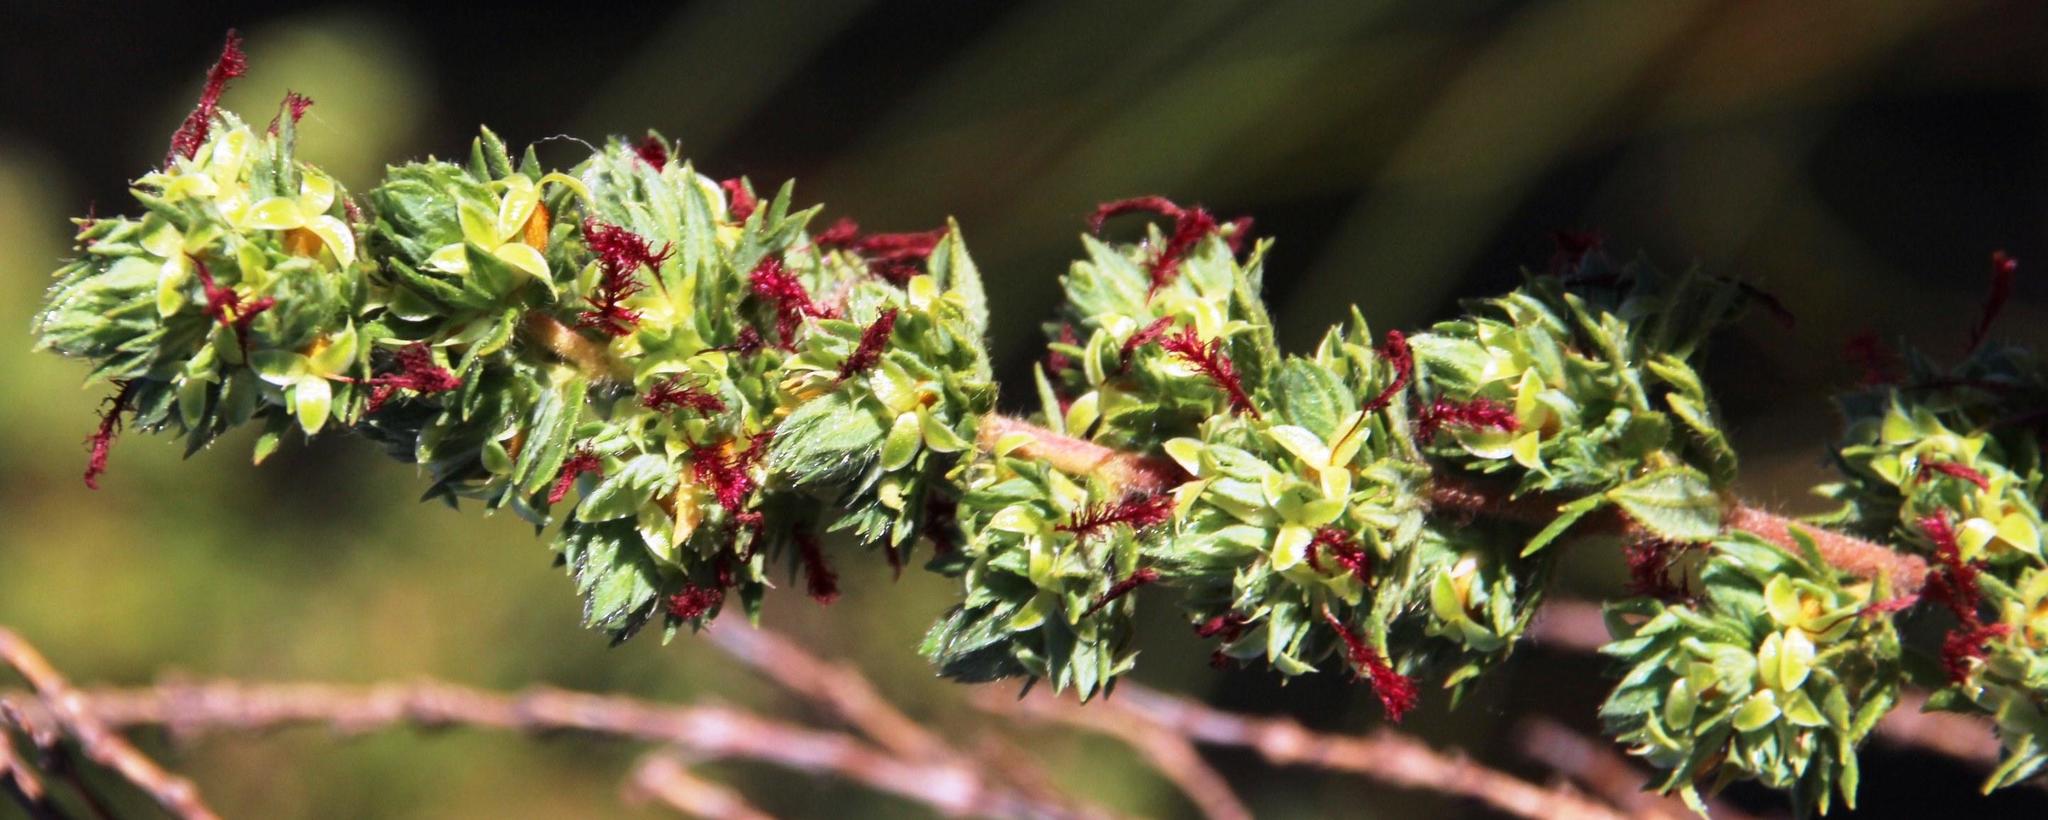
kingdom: Plantae
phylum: Tracheophyta
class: Magnoliopsida
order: Rosales
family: Rosaceae
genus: Cliffortia
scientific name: Cliffortia polygonifolia
